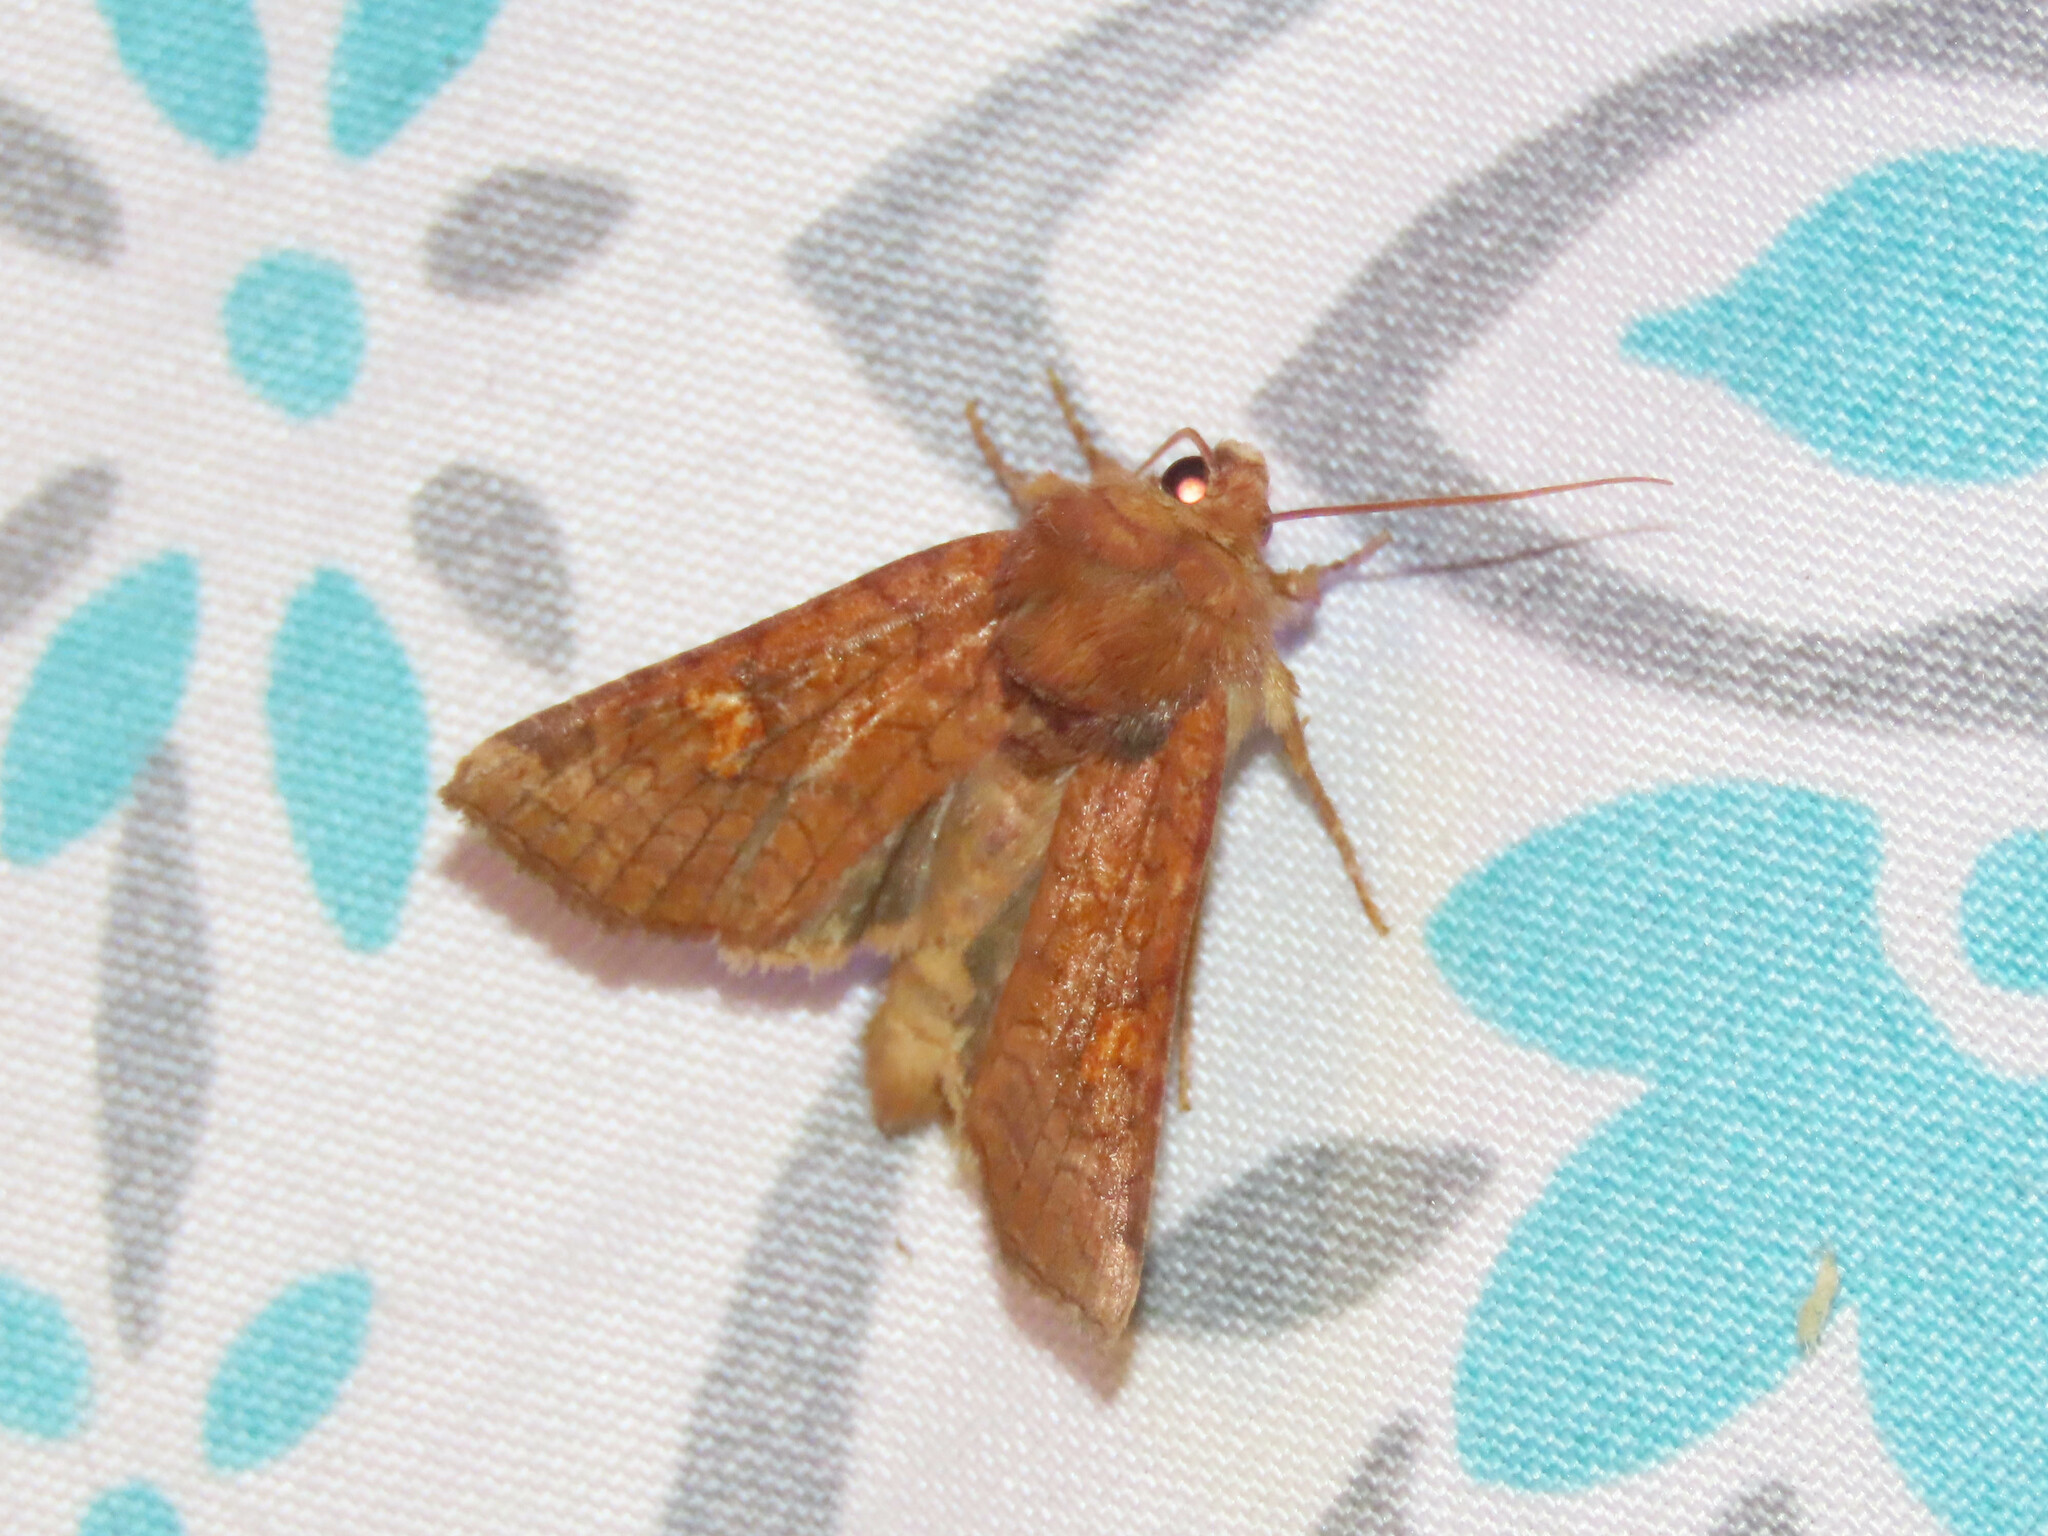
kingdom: Animalia
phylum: Arthropoda
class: Insecta
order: Lepidoptera
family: Noctuidae
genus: Amphipoea
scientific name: Amphipoea americana
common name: American ear moth
